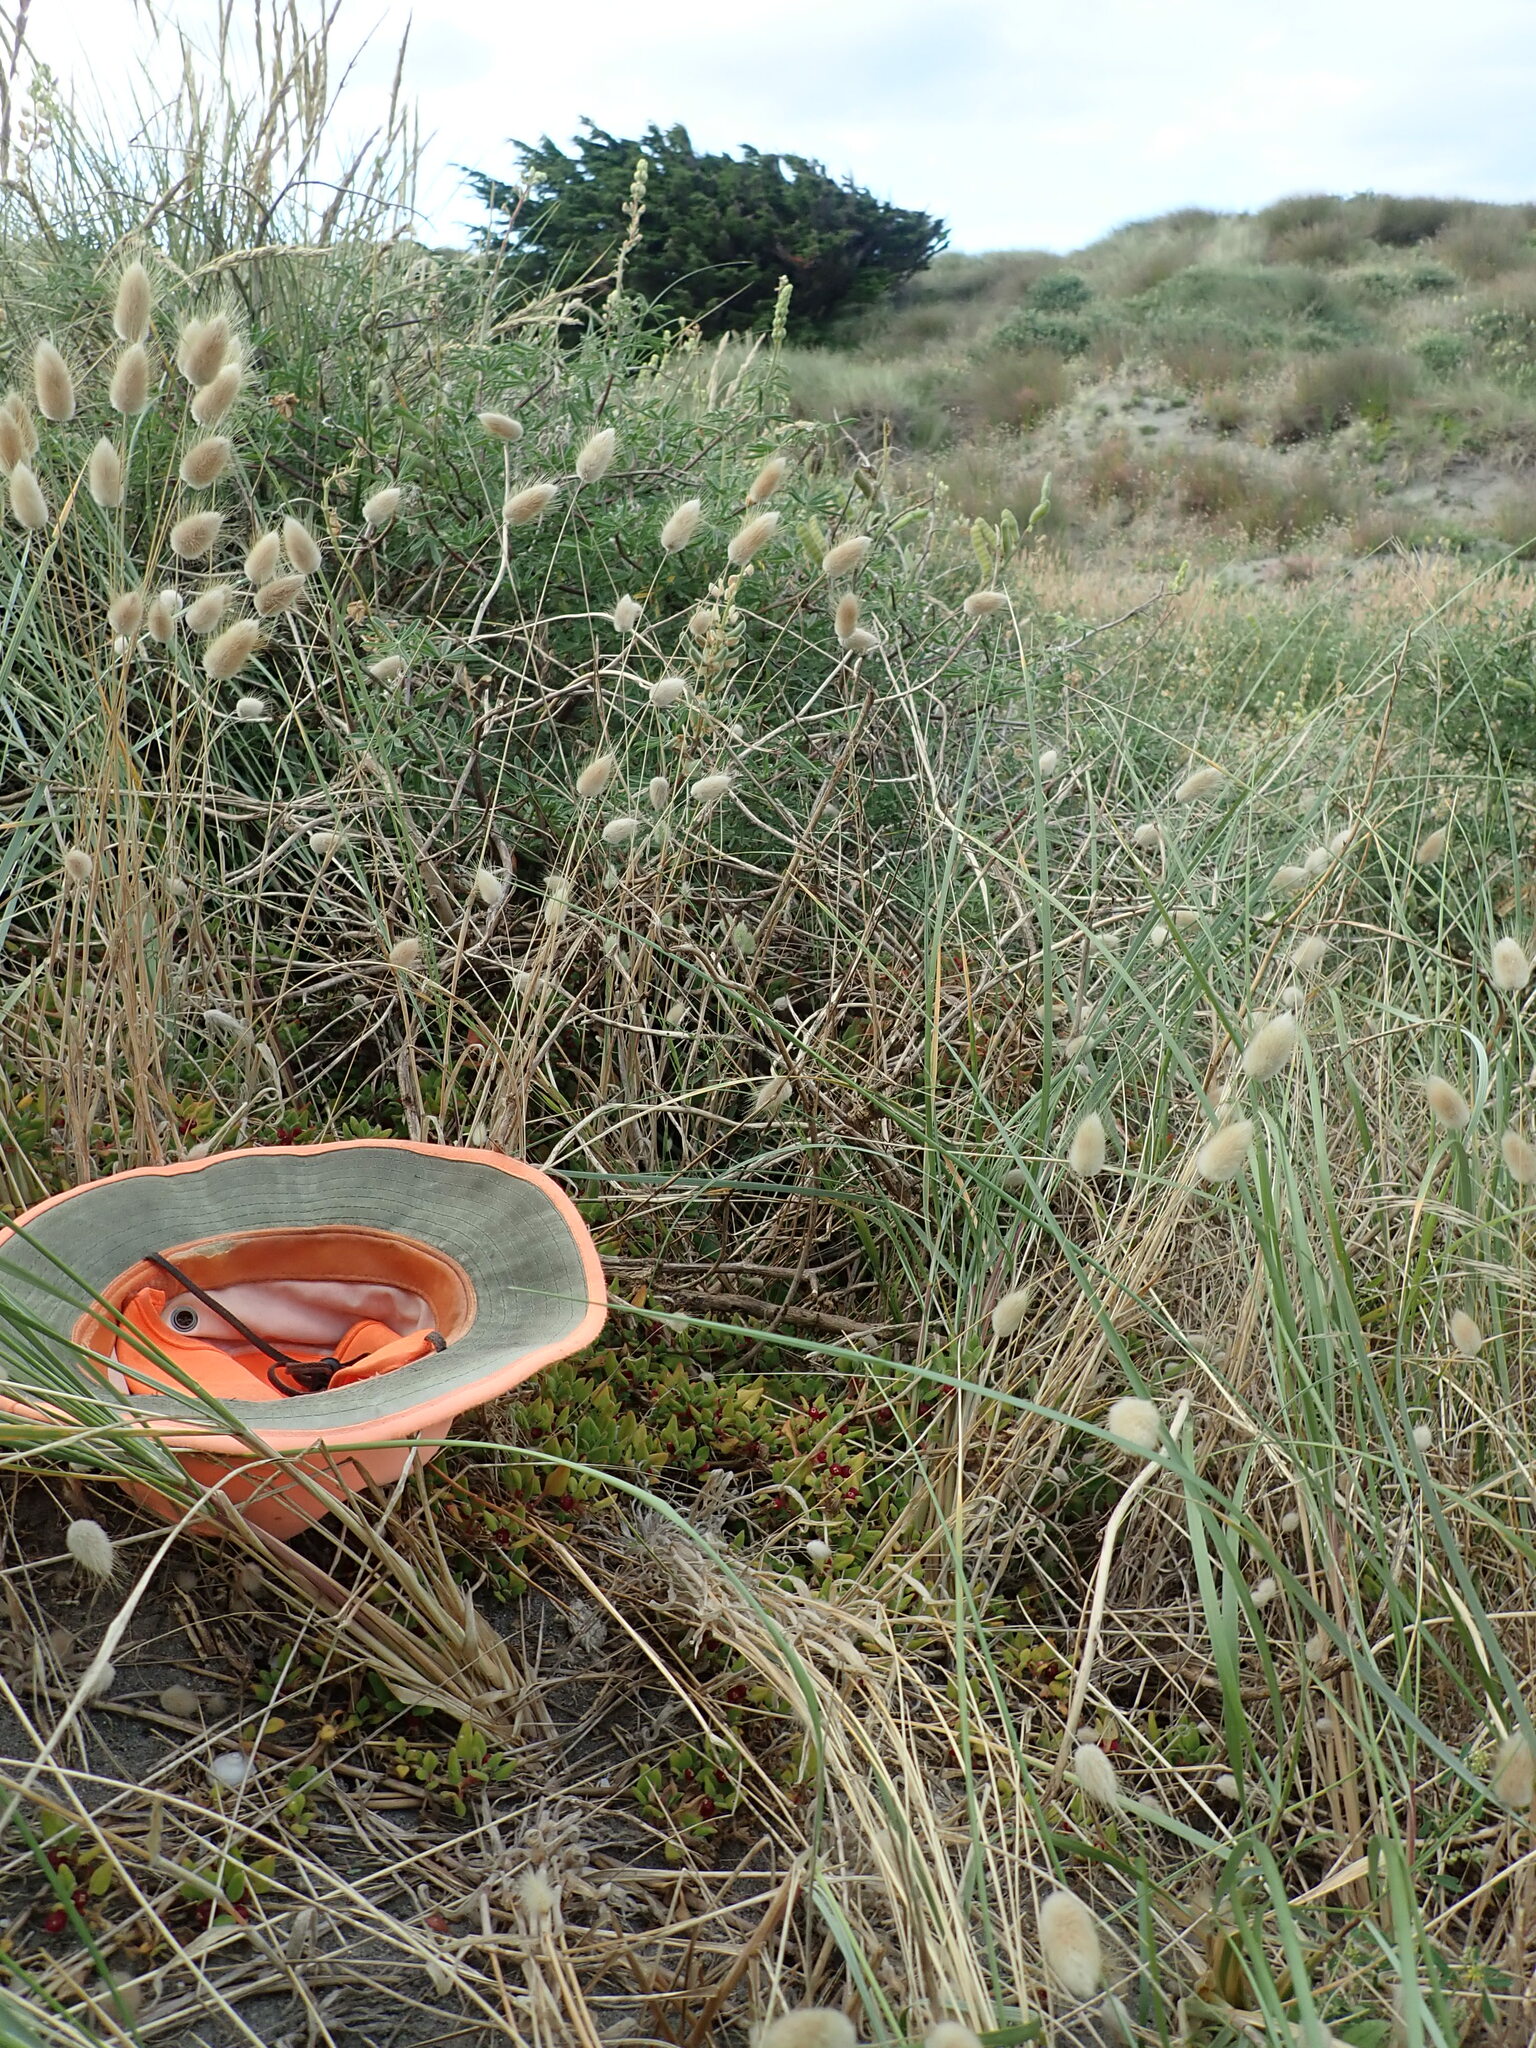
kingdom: Plantae
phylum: Tracheophyta
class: Magnoliopsida
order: Caryophyllales
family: Aizoaceae
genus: Tetragonia
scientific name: Tetragonia implexicoma
